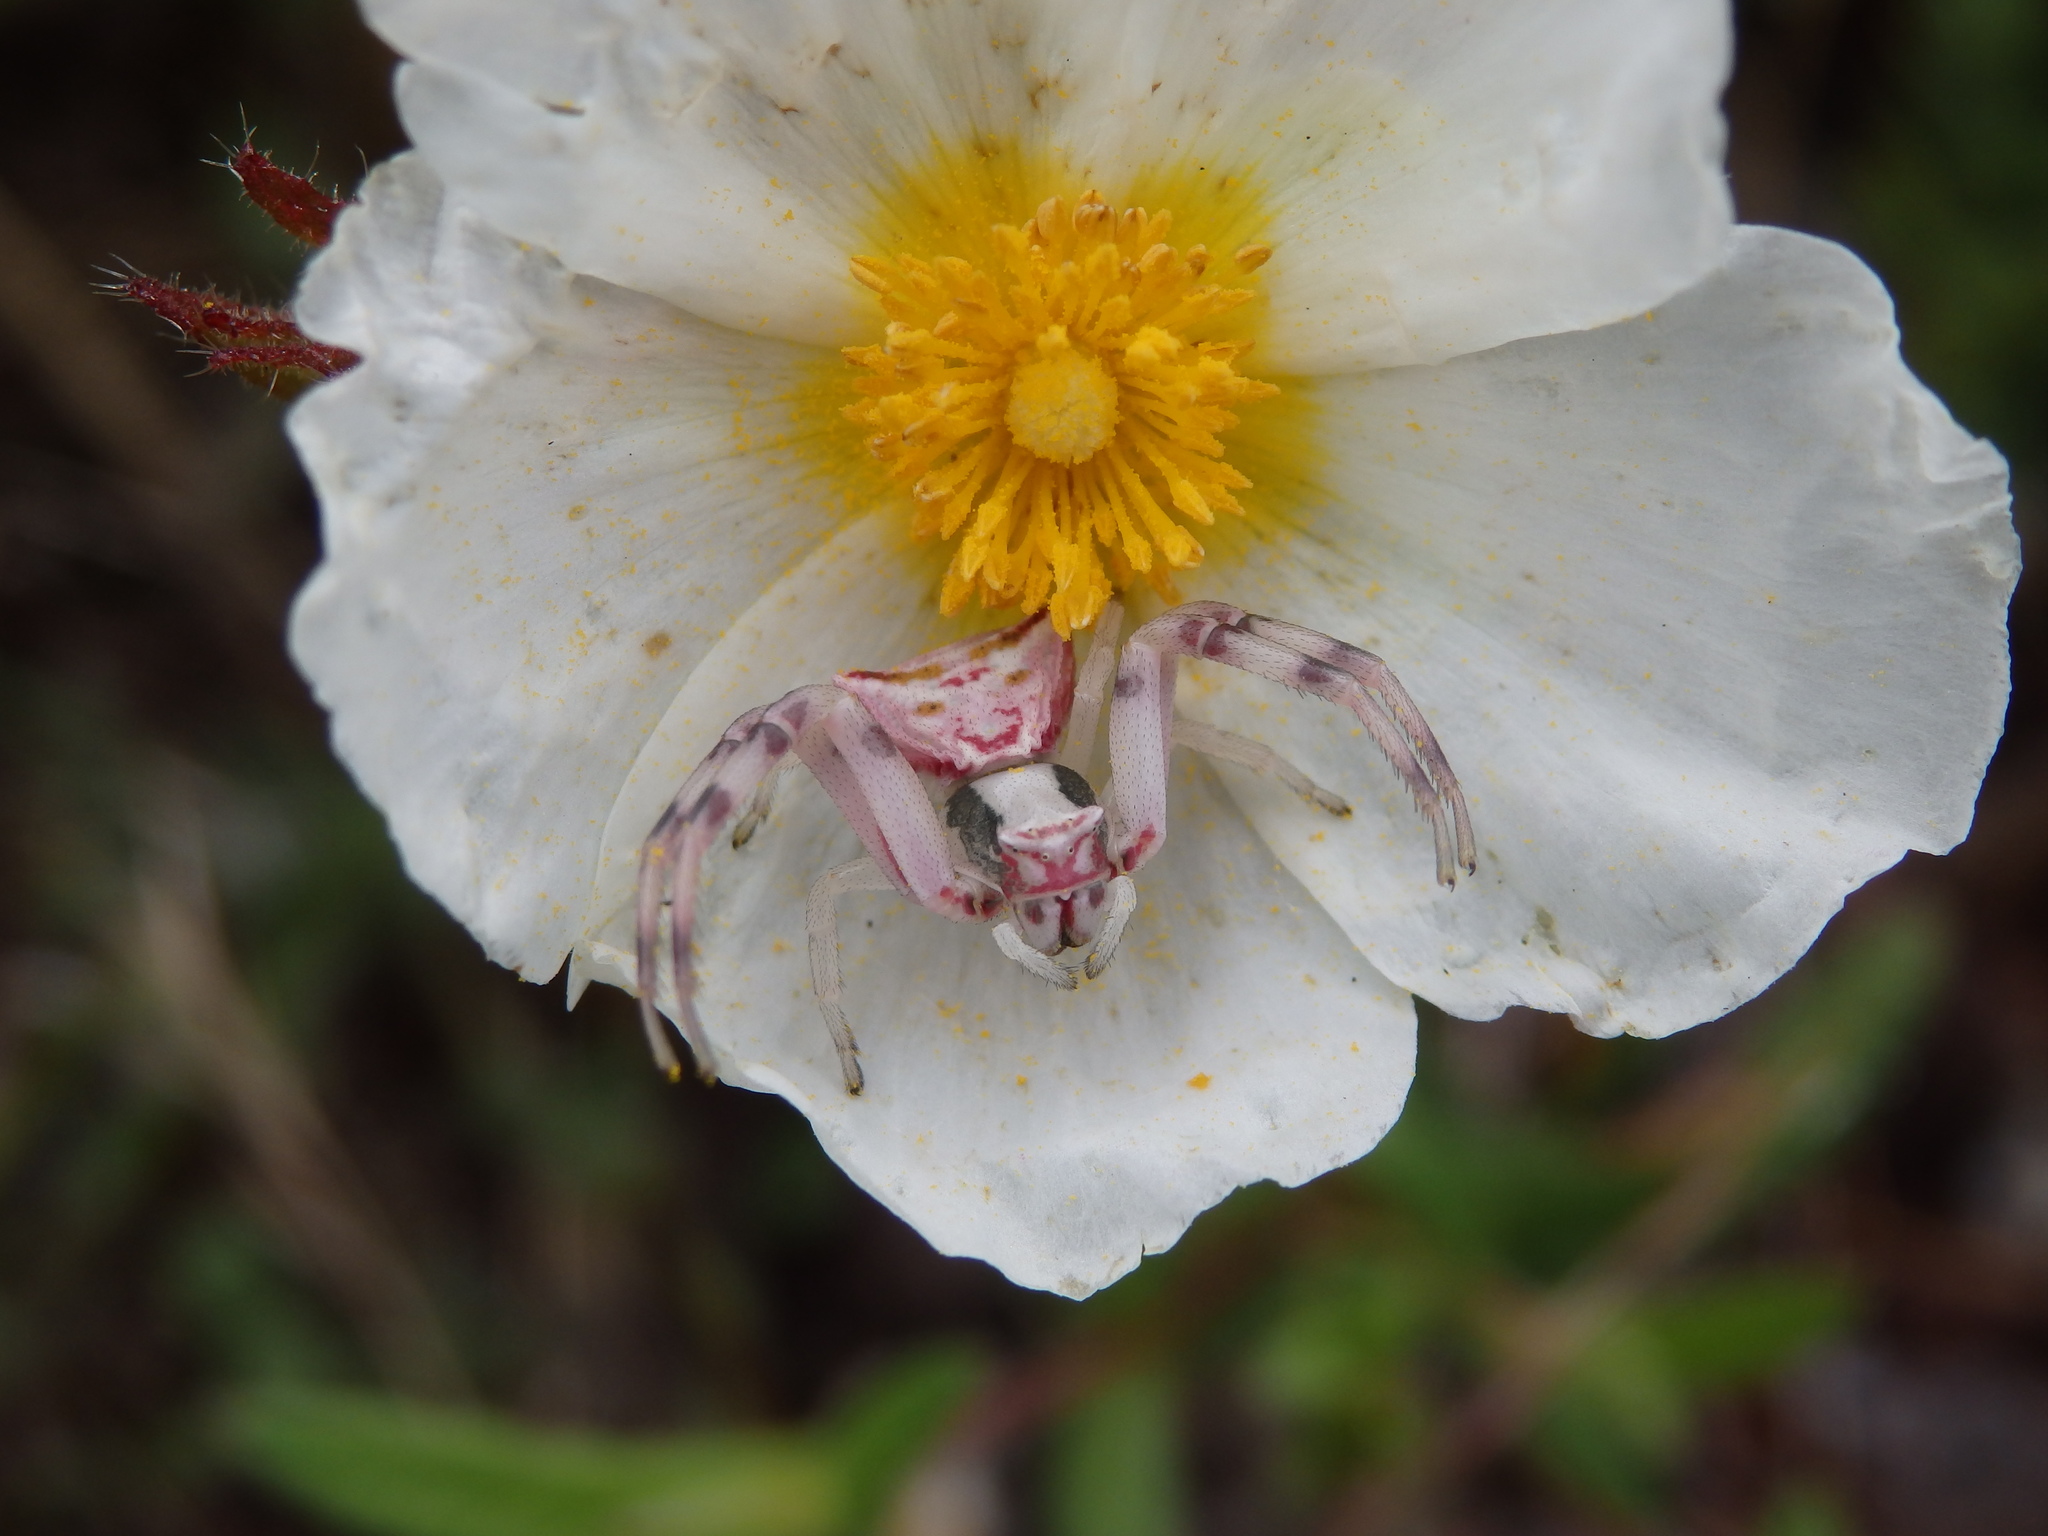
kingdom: Animalia
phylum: Arthropoda
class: Arachnida
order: Araneae
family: Thomisidae
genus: Thomisus
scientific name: Thomisus onustus
